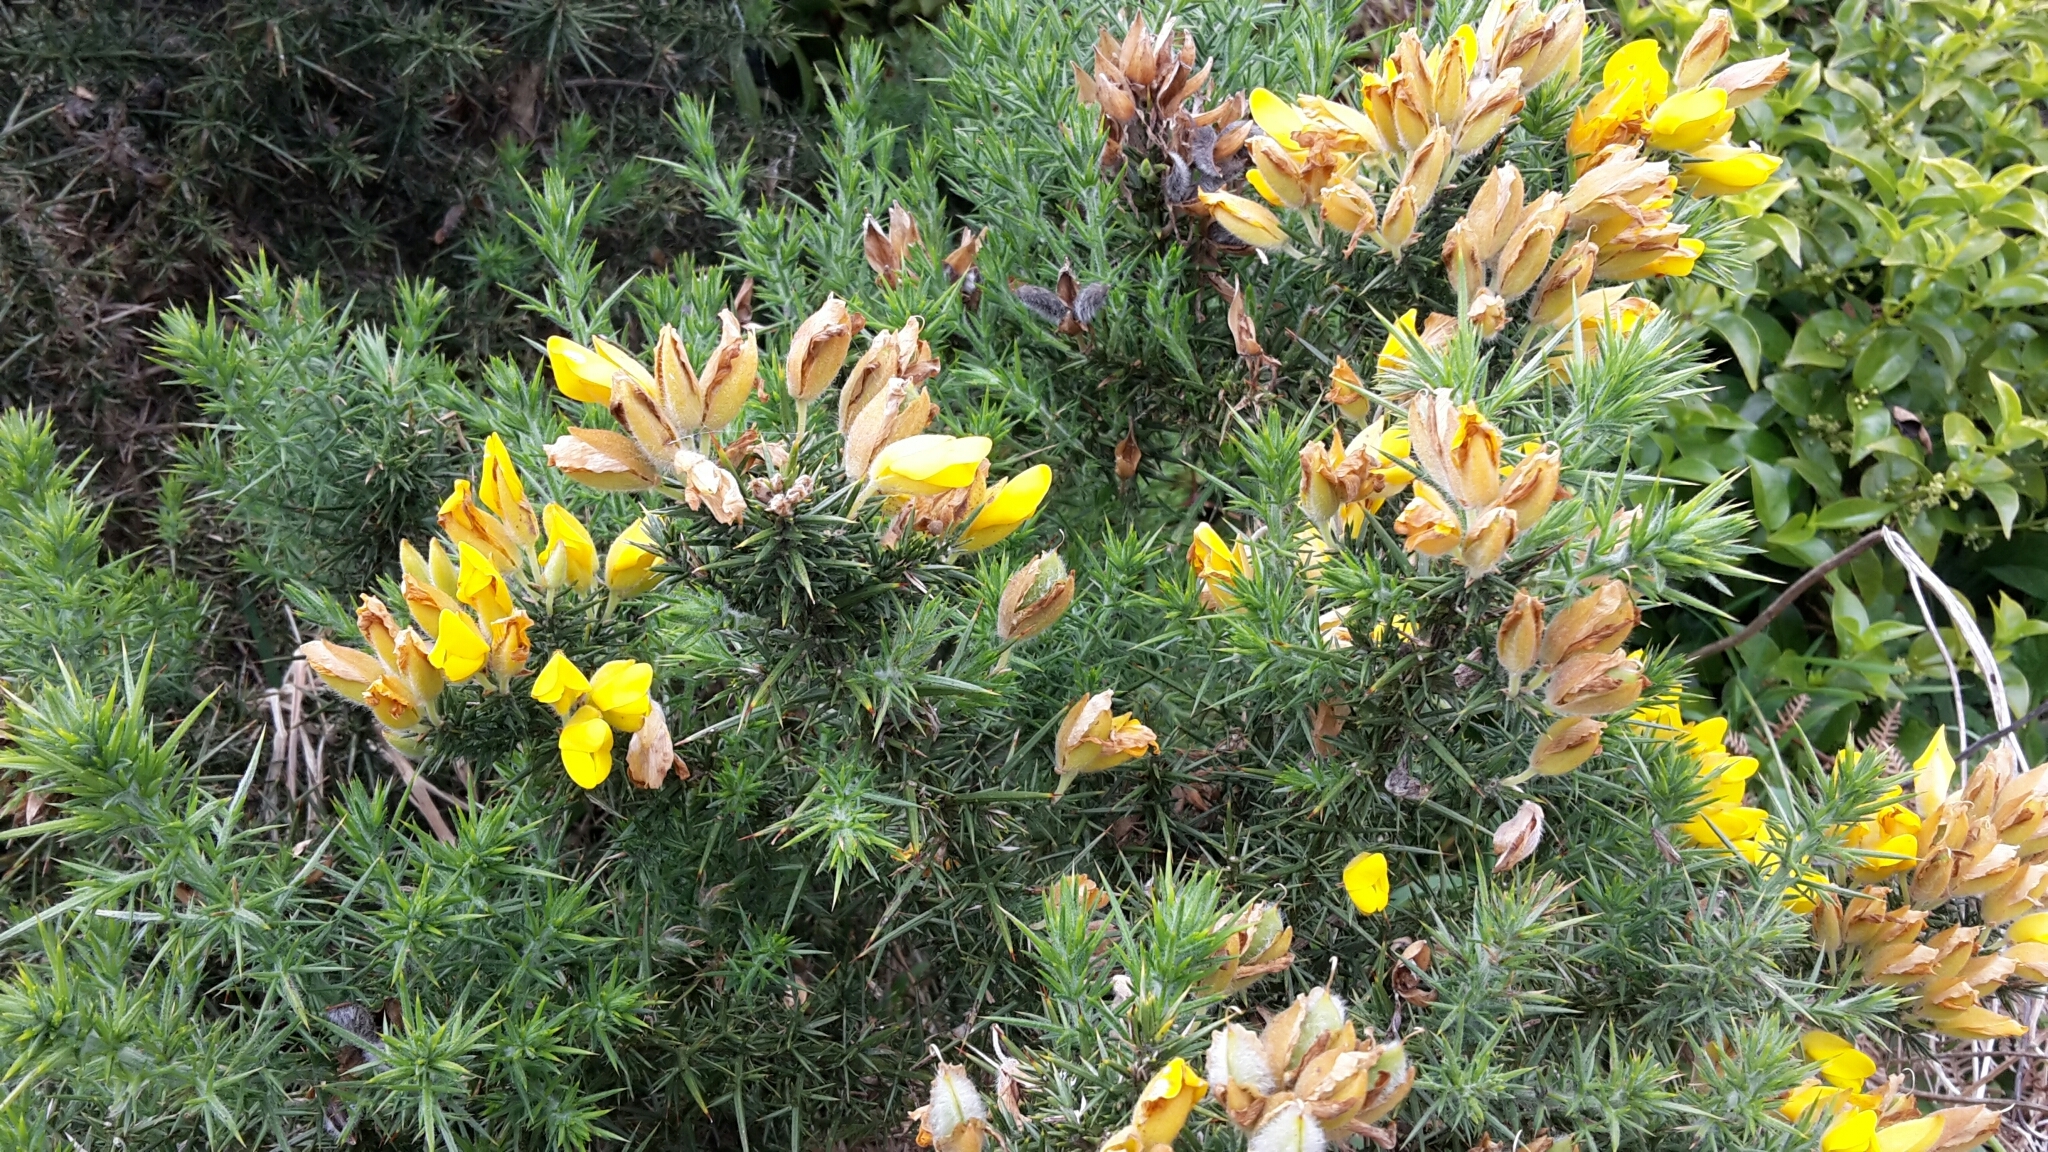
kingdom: Plantae
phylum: Tracheophyta
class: Magnoliopsida
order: Fabales
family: Fabaceae
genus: Ulex
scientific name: Ulex europaeus
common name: Common gorse
